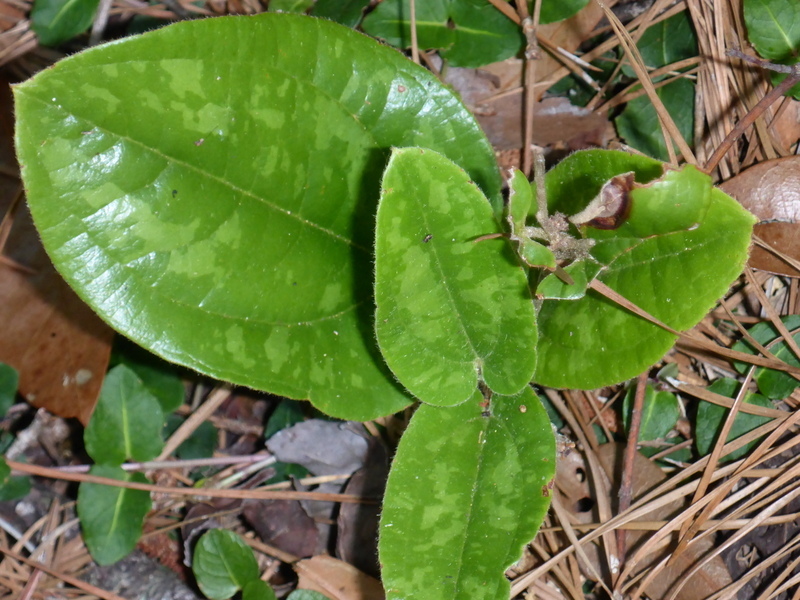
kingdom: Plantae
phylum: Tracheophyta
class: Liliopsida
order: Liliales
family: Smilacaceae
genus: Smilax
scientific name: Smilax pumila
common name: Sarsaparilla-vine
